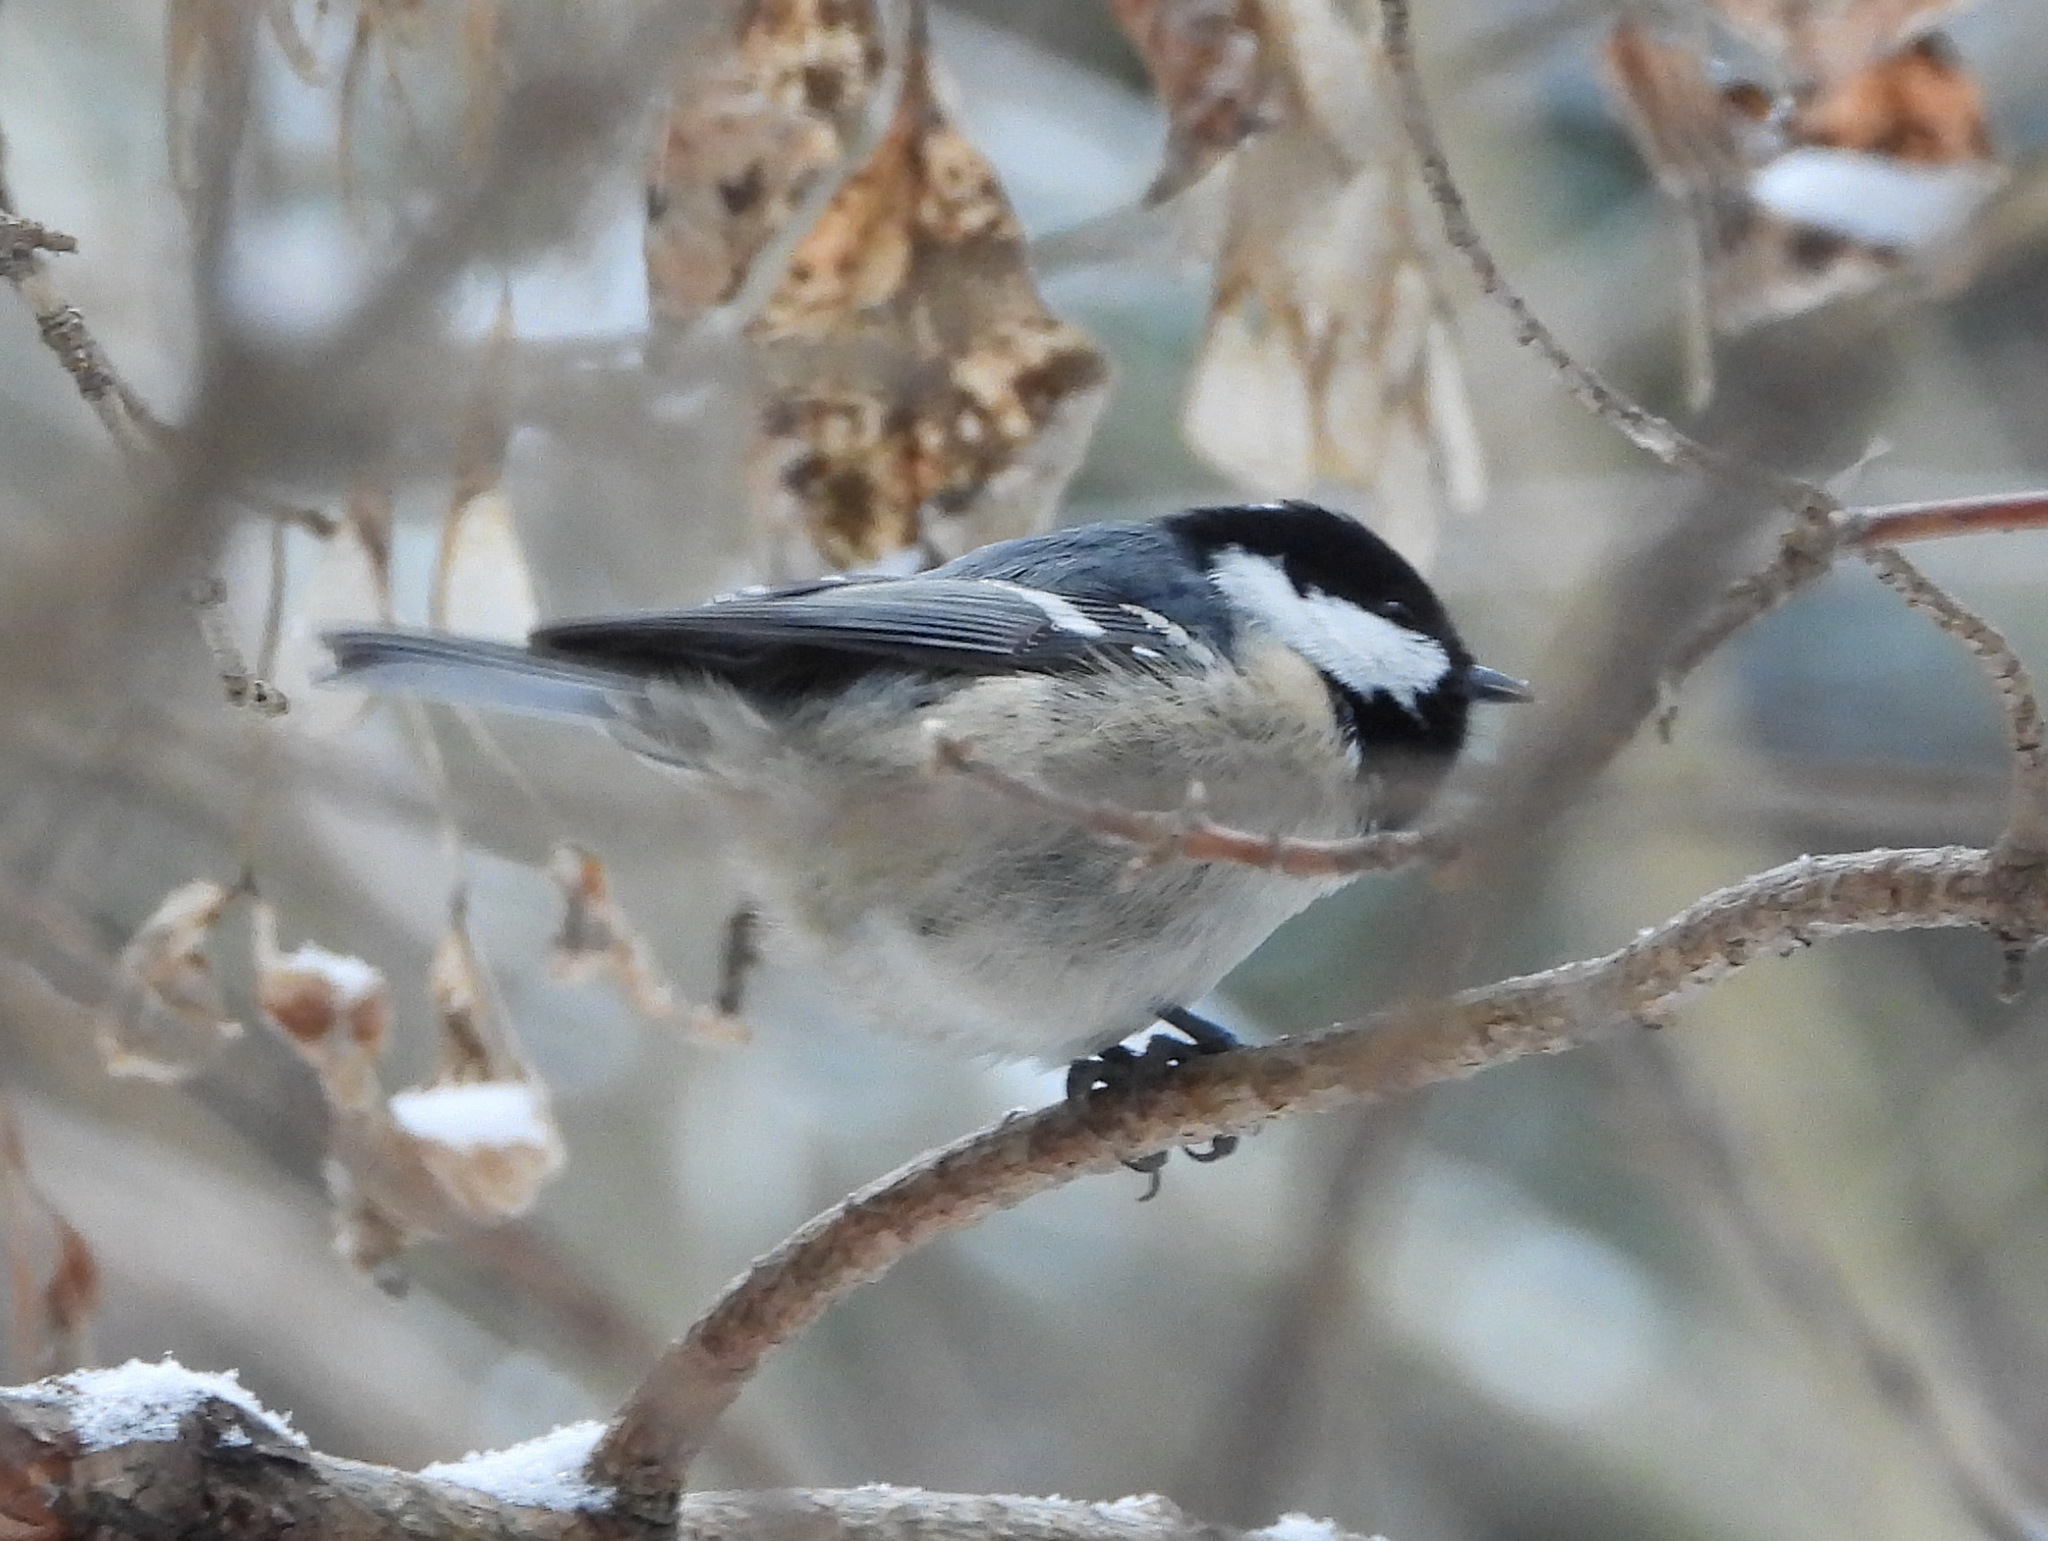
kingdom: Animalia
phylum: Chordata
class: Aves
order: Passeriformes
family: Paridae
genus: Periparus
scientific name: Periparus ater
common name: Coal tit
